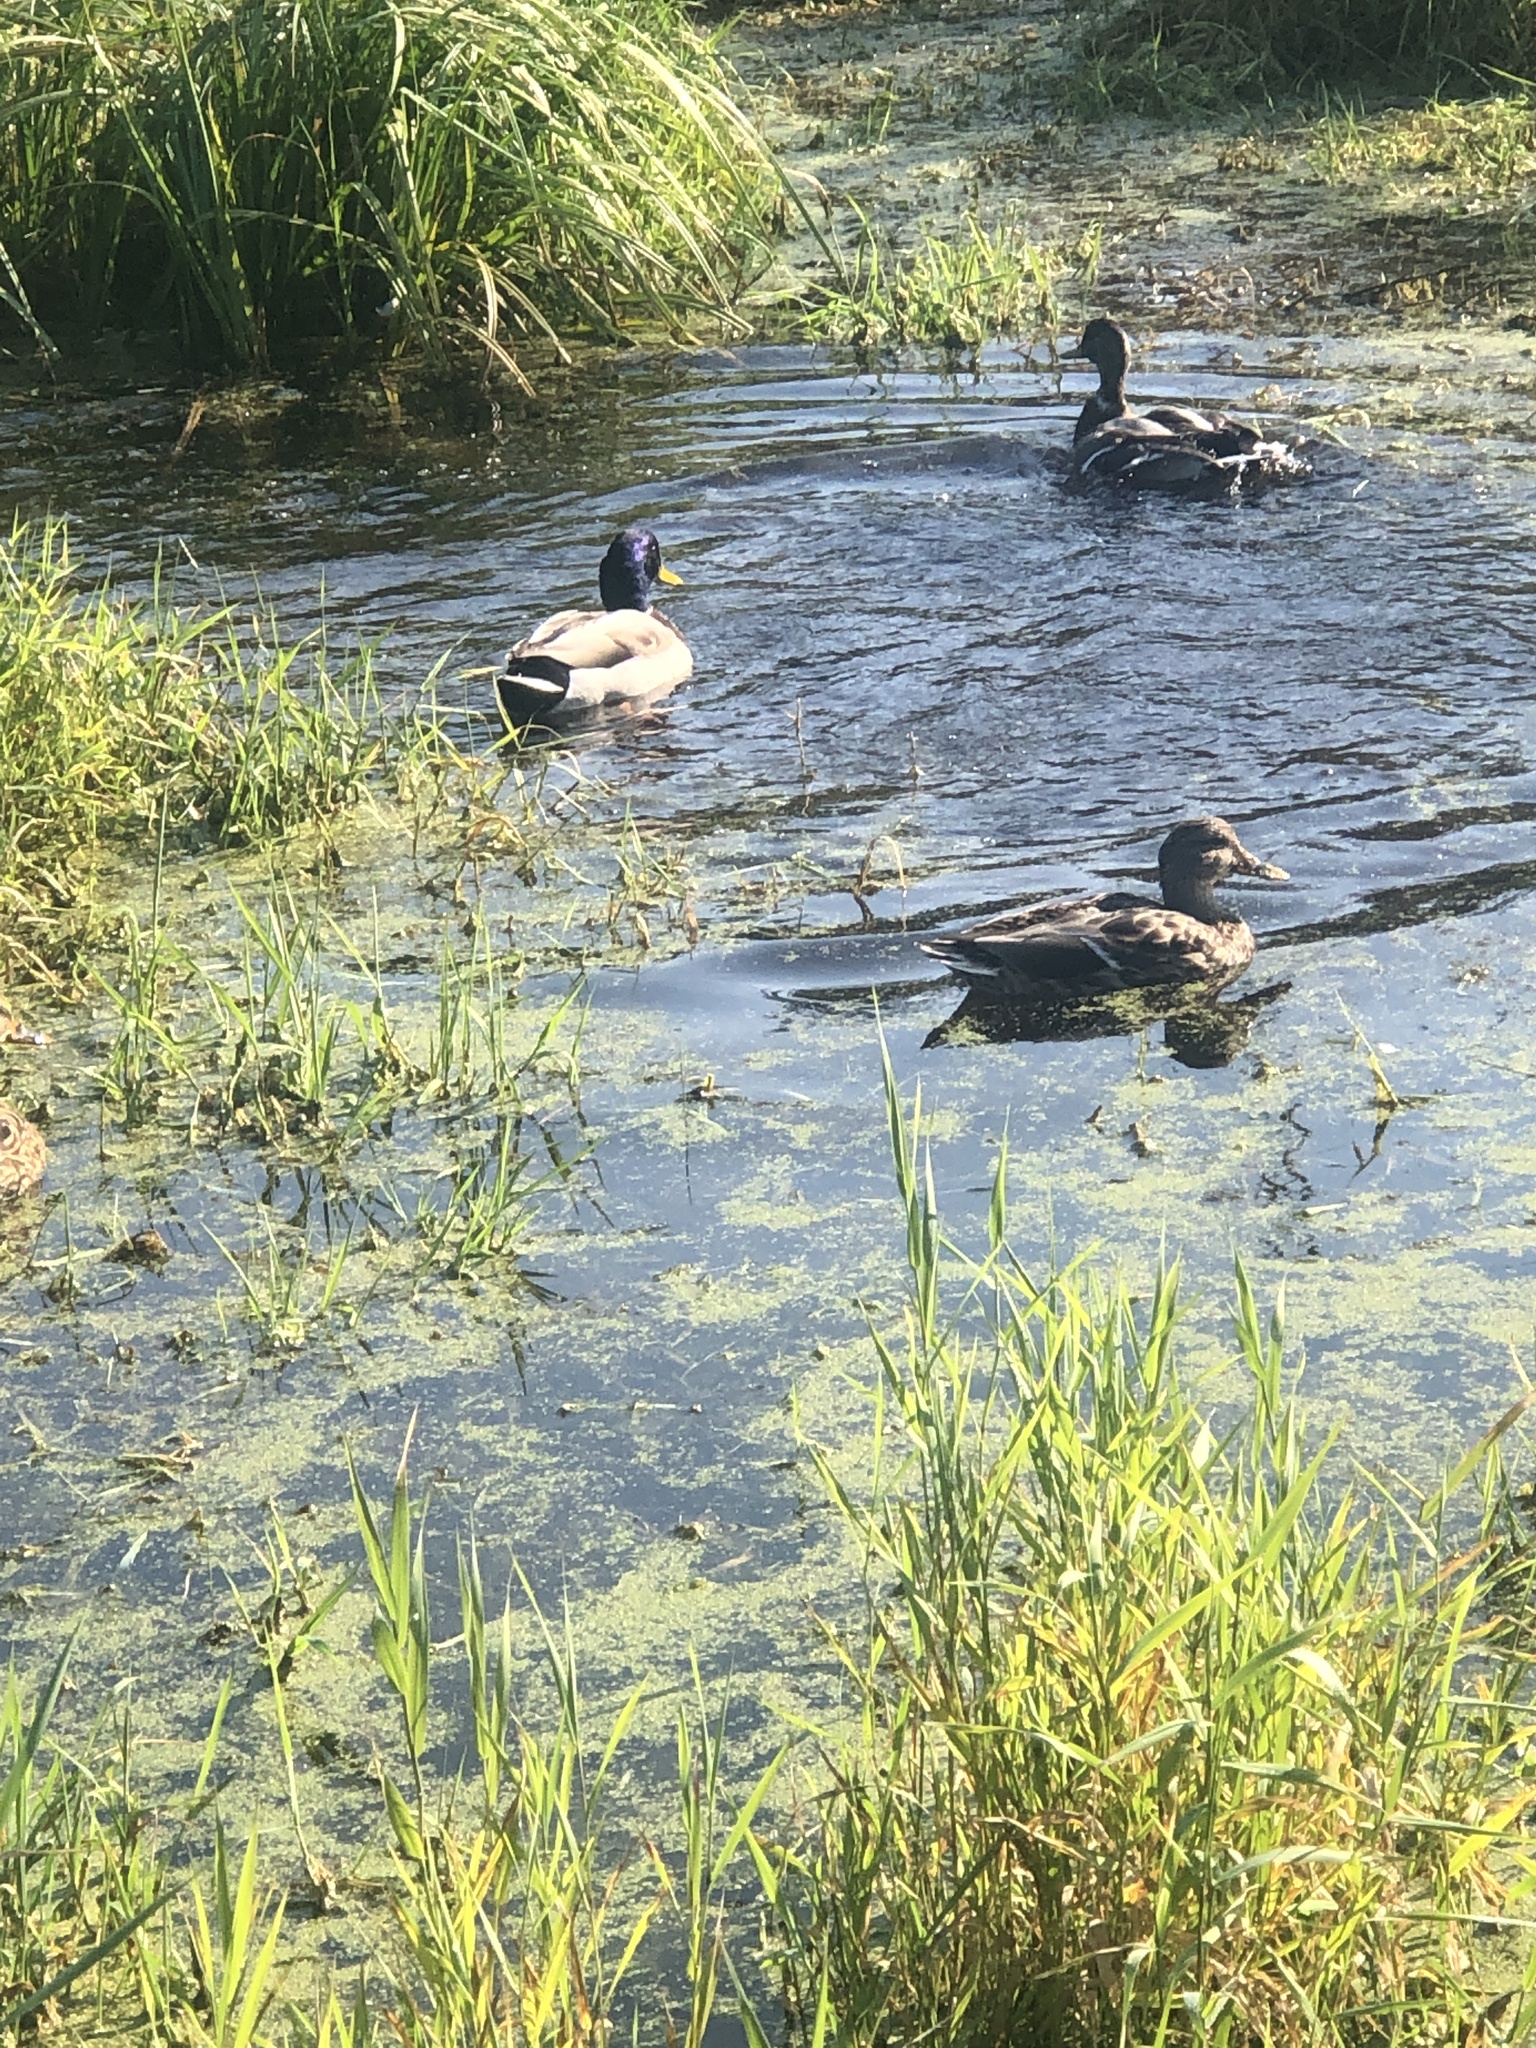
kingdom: Animalia
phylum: Chordata
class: Aves
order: Anseriformes
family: Anatidae
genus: Anas
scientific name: Anas platyrhynchos
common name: Mallard
